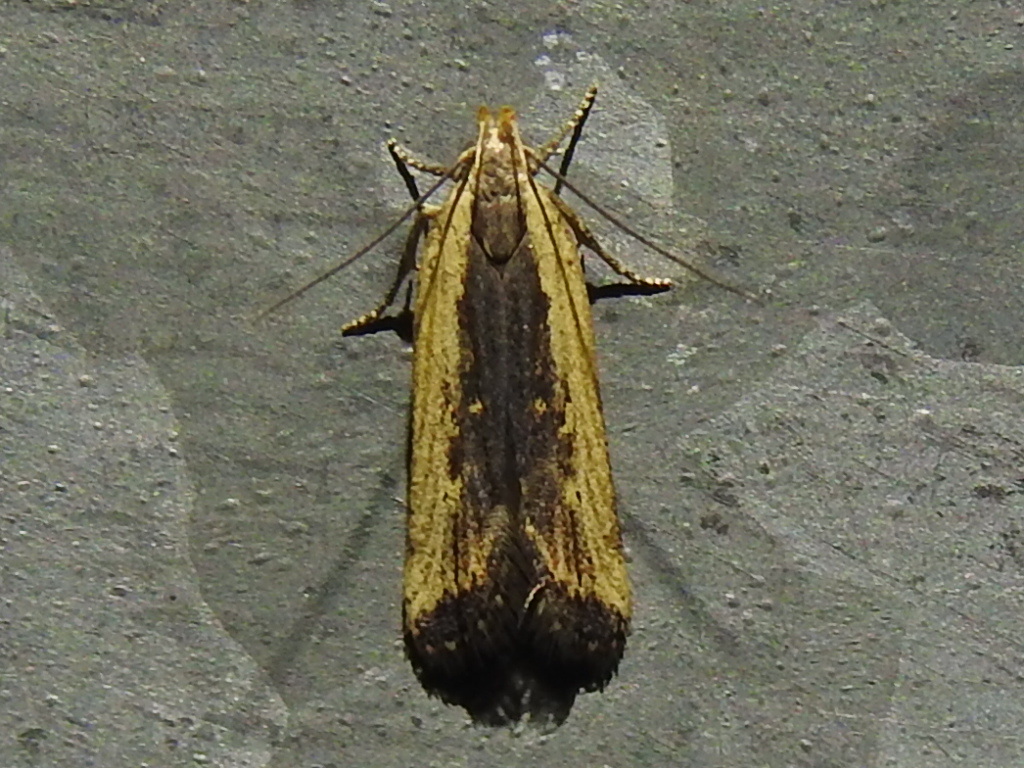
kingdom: Animalia
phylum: Arthropoda
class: Insecta
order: Lepidoptera
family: Gelechiidae
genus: Dichomeris
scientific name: Dichomeris simpliciella
